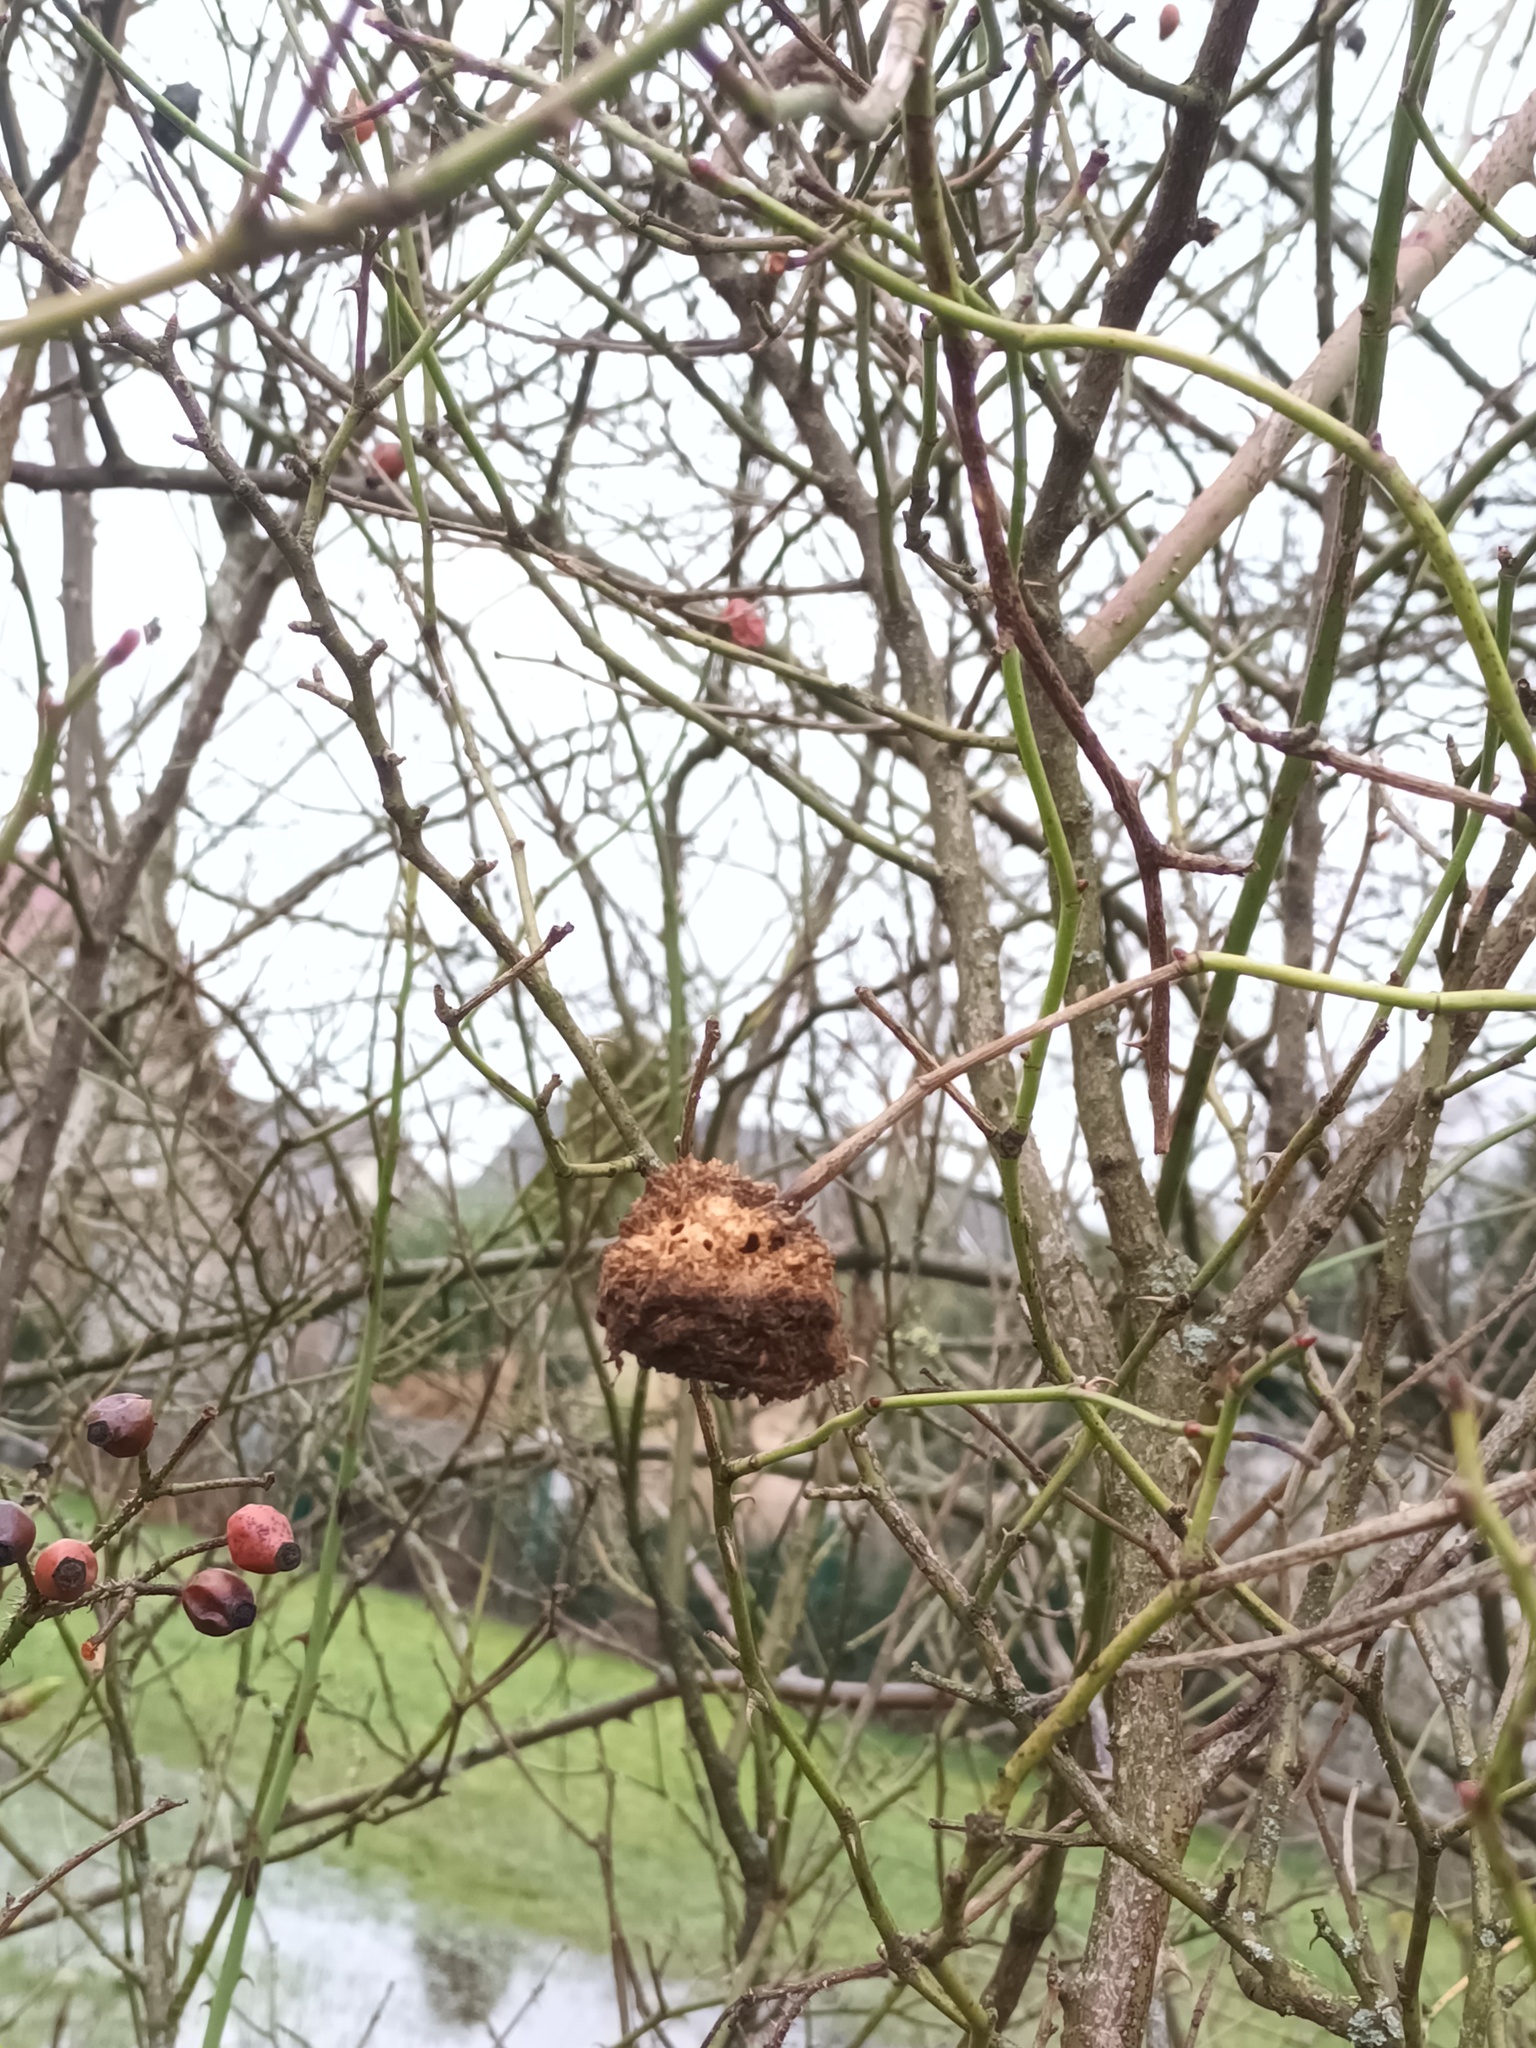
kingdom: Animalia
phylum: Arthropoda
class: Insecta
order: Hymenoptera
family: Cynipidae
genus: Diplolepis
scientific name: Diplolepis rosae
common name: Bedeguar gall
